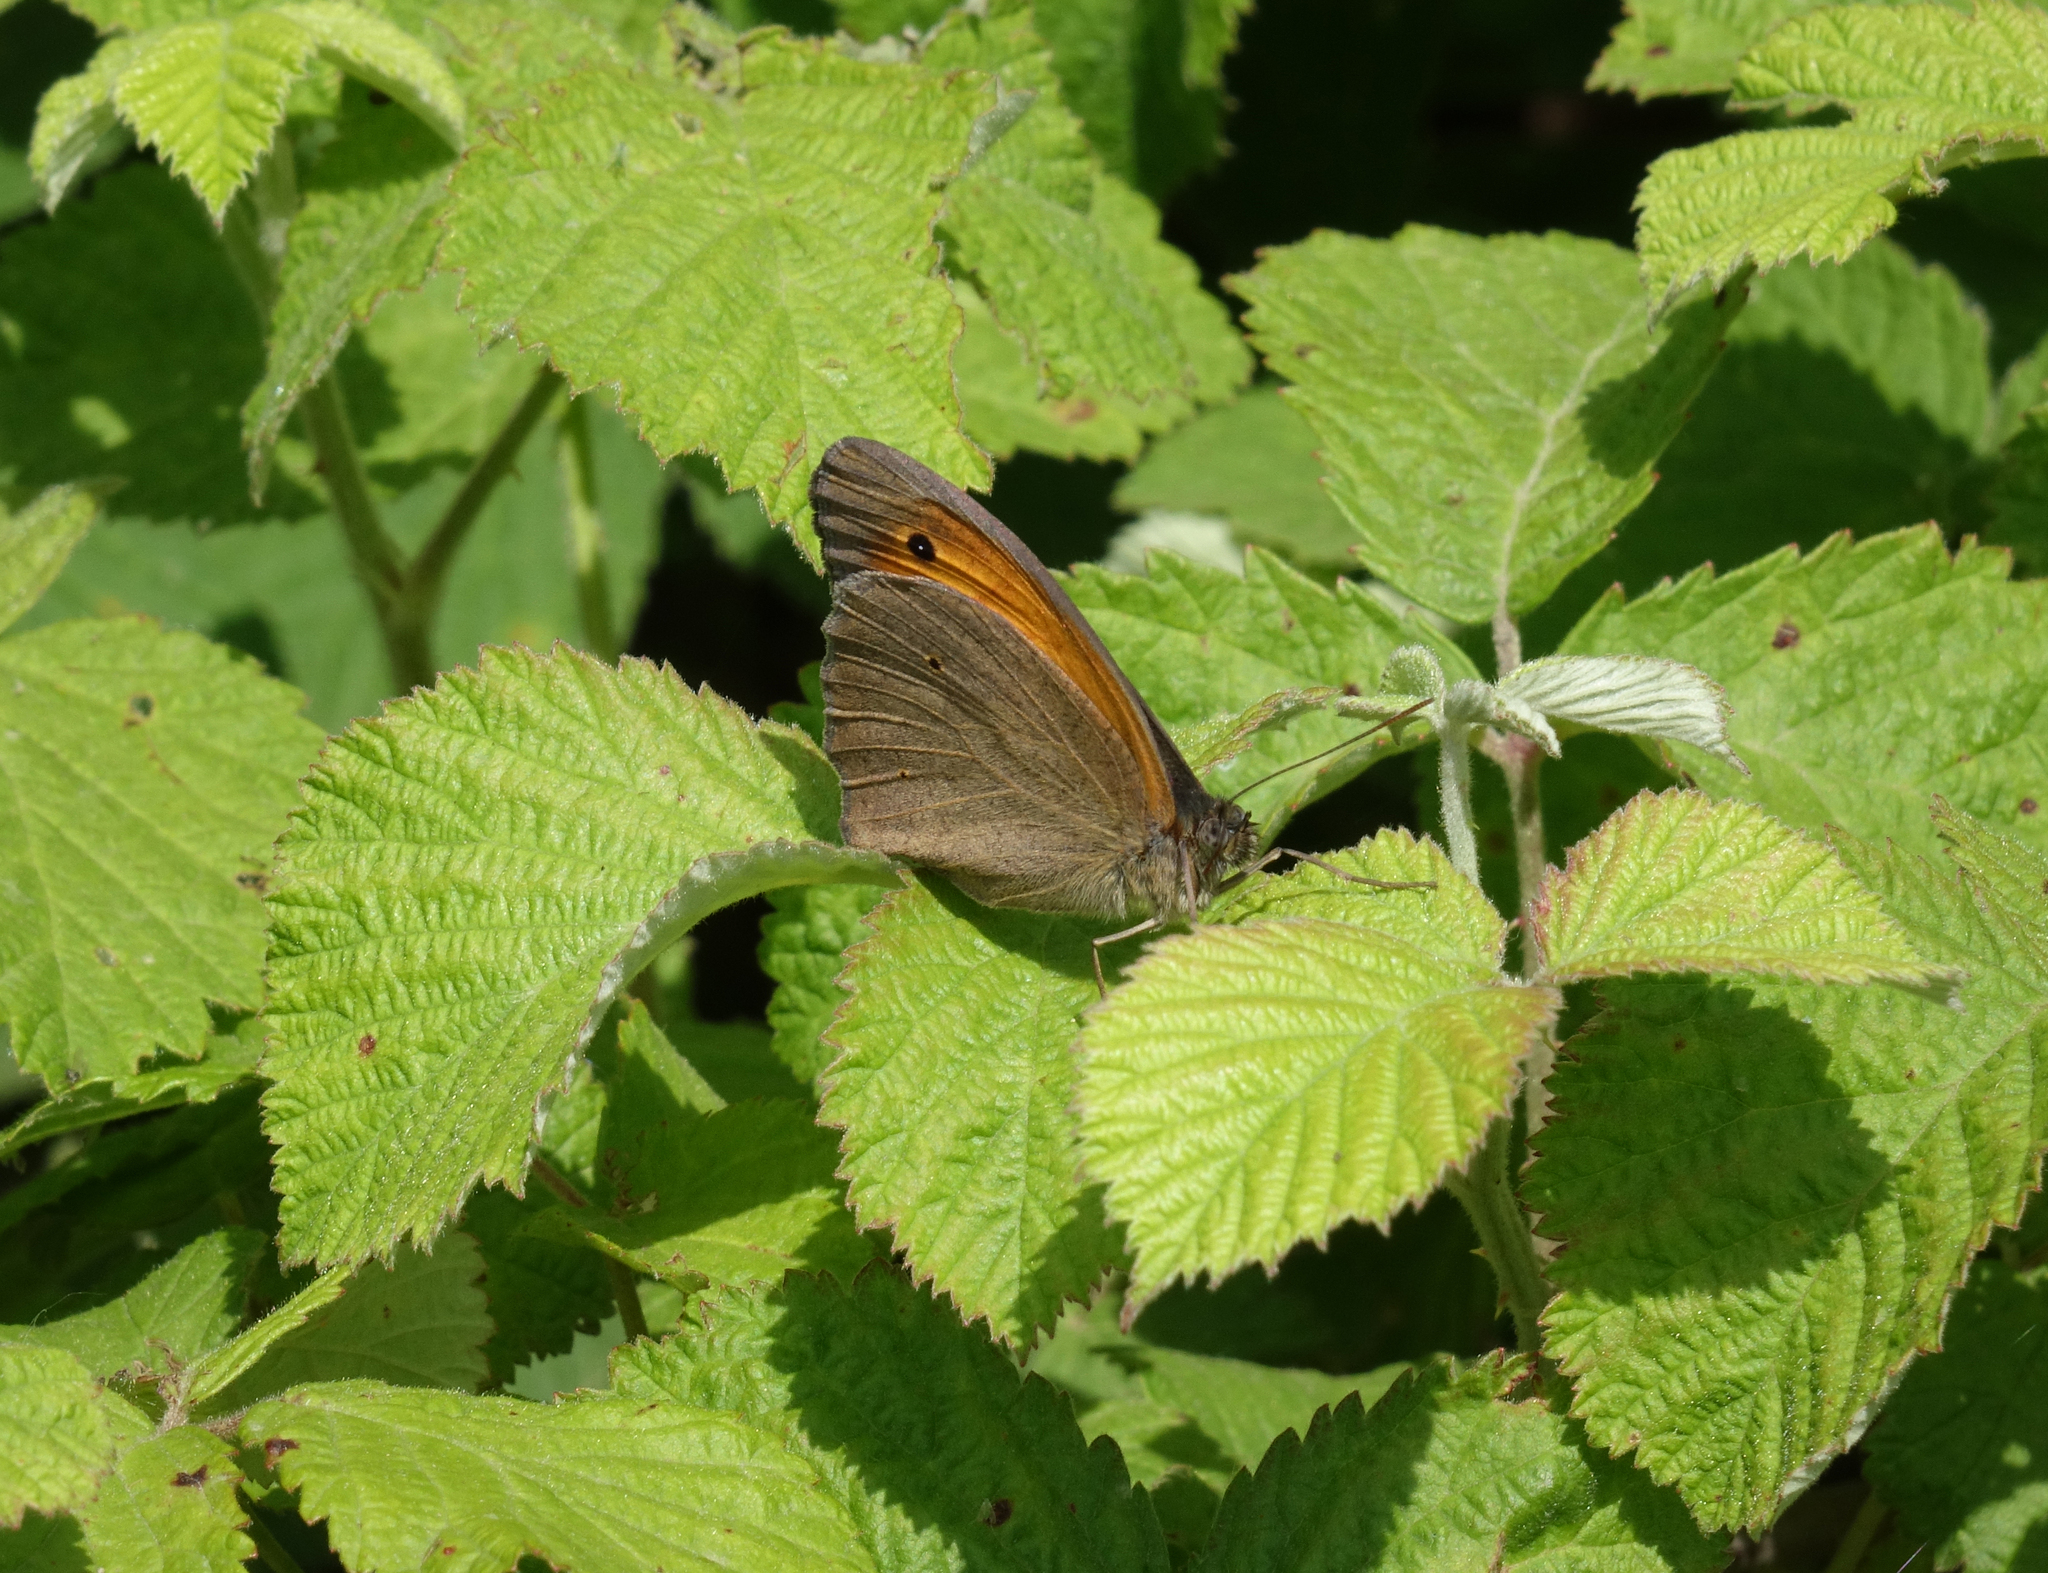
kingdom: Animalia
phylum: Arthropoda
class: Insecta
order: Lepidoptera
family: Nymphalidae
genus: Maniola
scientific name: Maniola jurtina
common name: Meadow brown
